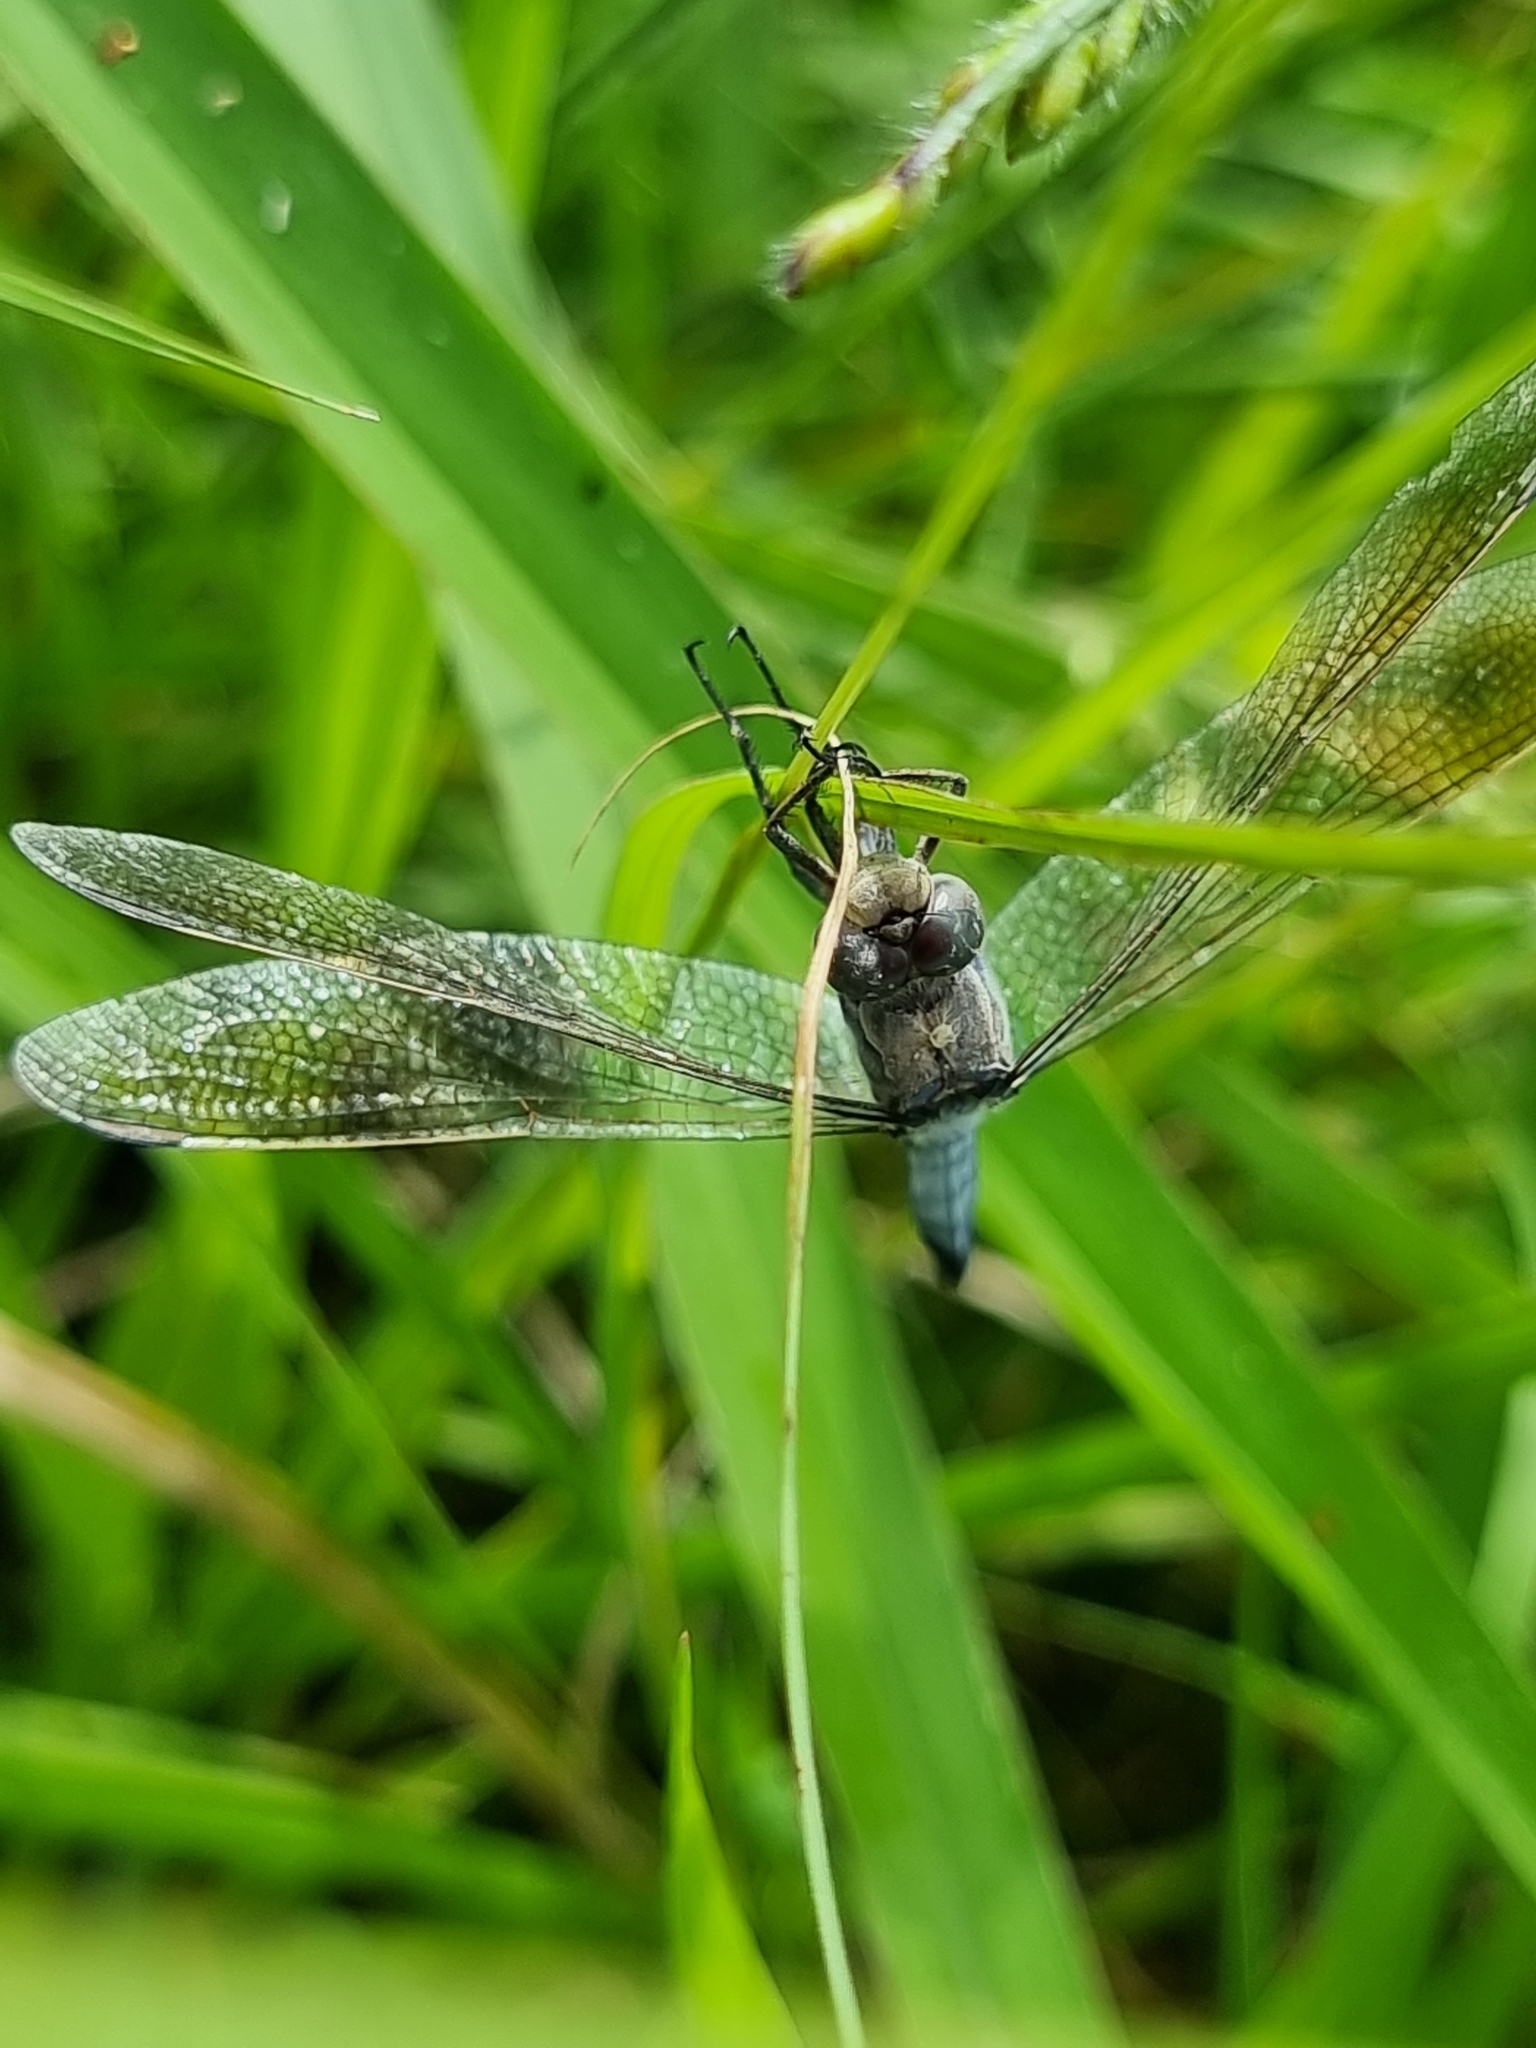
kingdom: Animalia
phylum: Arthropoda
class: Insecta
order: Odonata
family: Libellulidae
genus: Orthetrum
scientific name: Orthetrum caledonicum
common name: Blue skimmer
